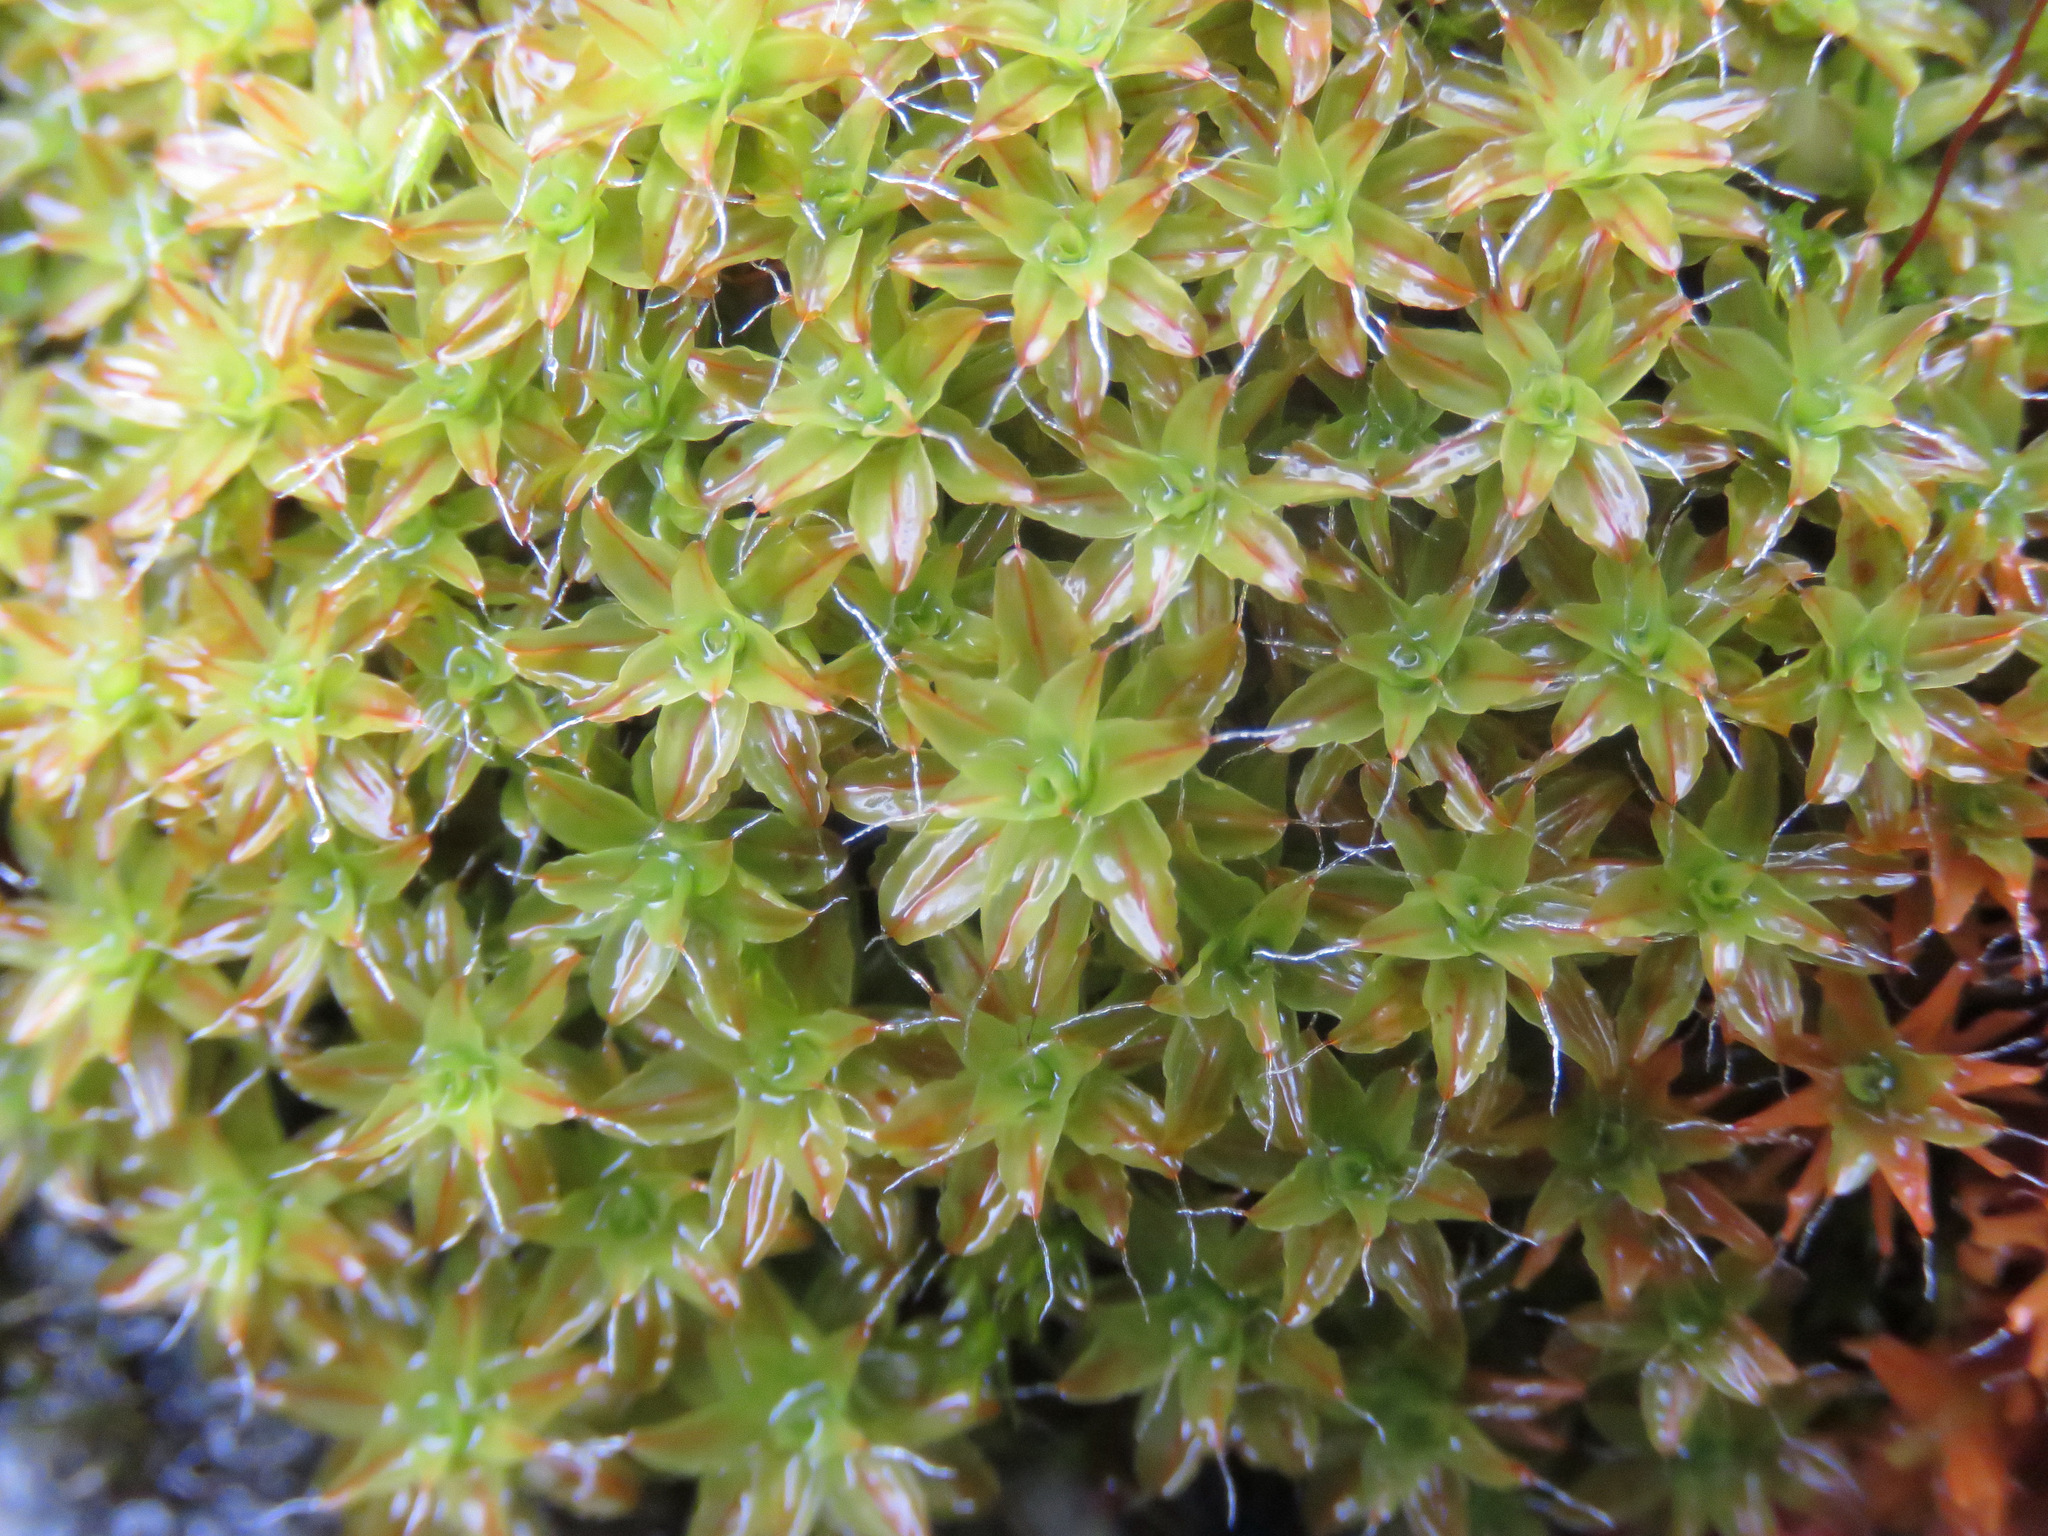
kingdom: Plantae
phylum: Bryophyta
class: Bryopsida
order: Pottiales
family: Pottiaceae
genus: Syntrichia
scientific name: Syntrichia ruralis
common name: Sidewalk screw moss
